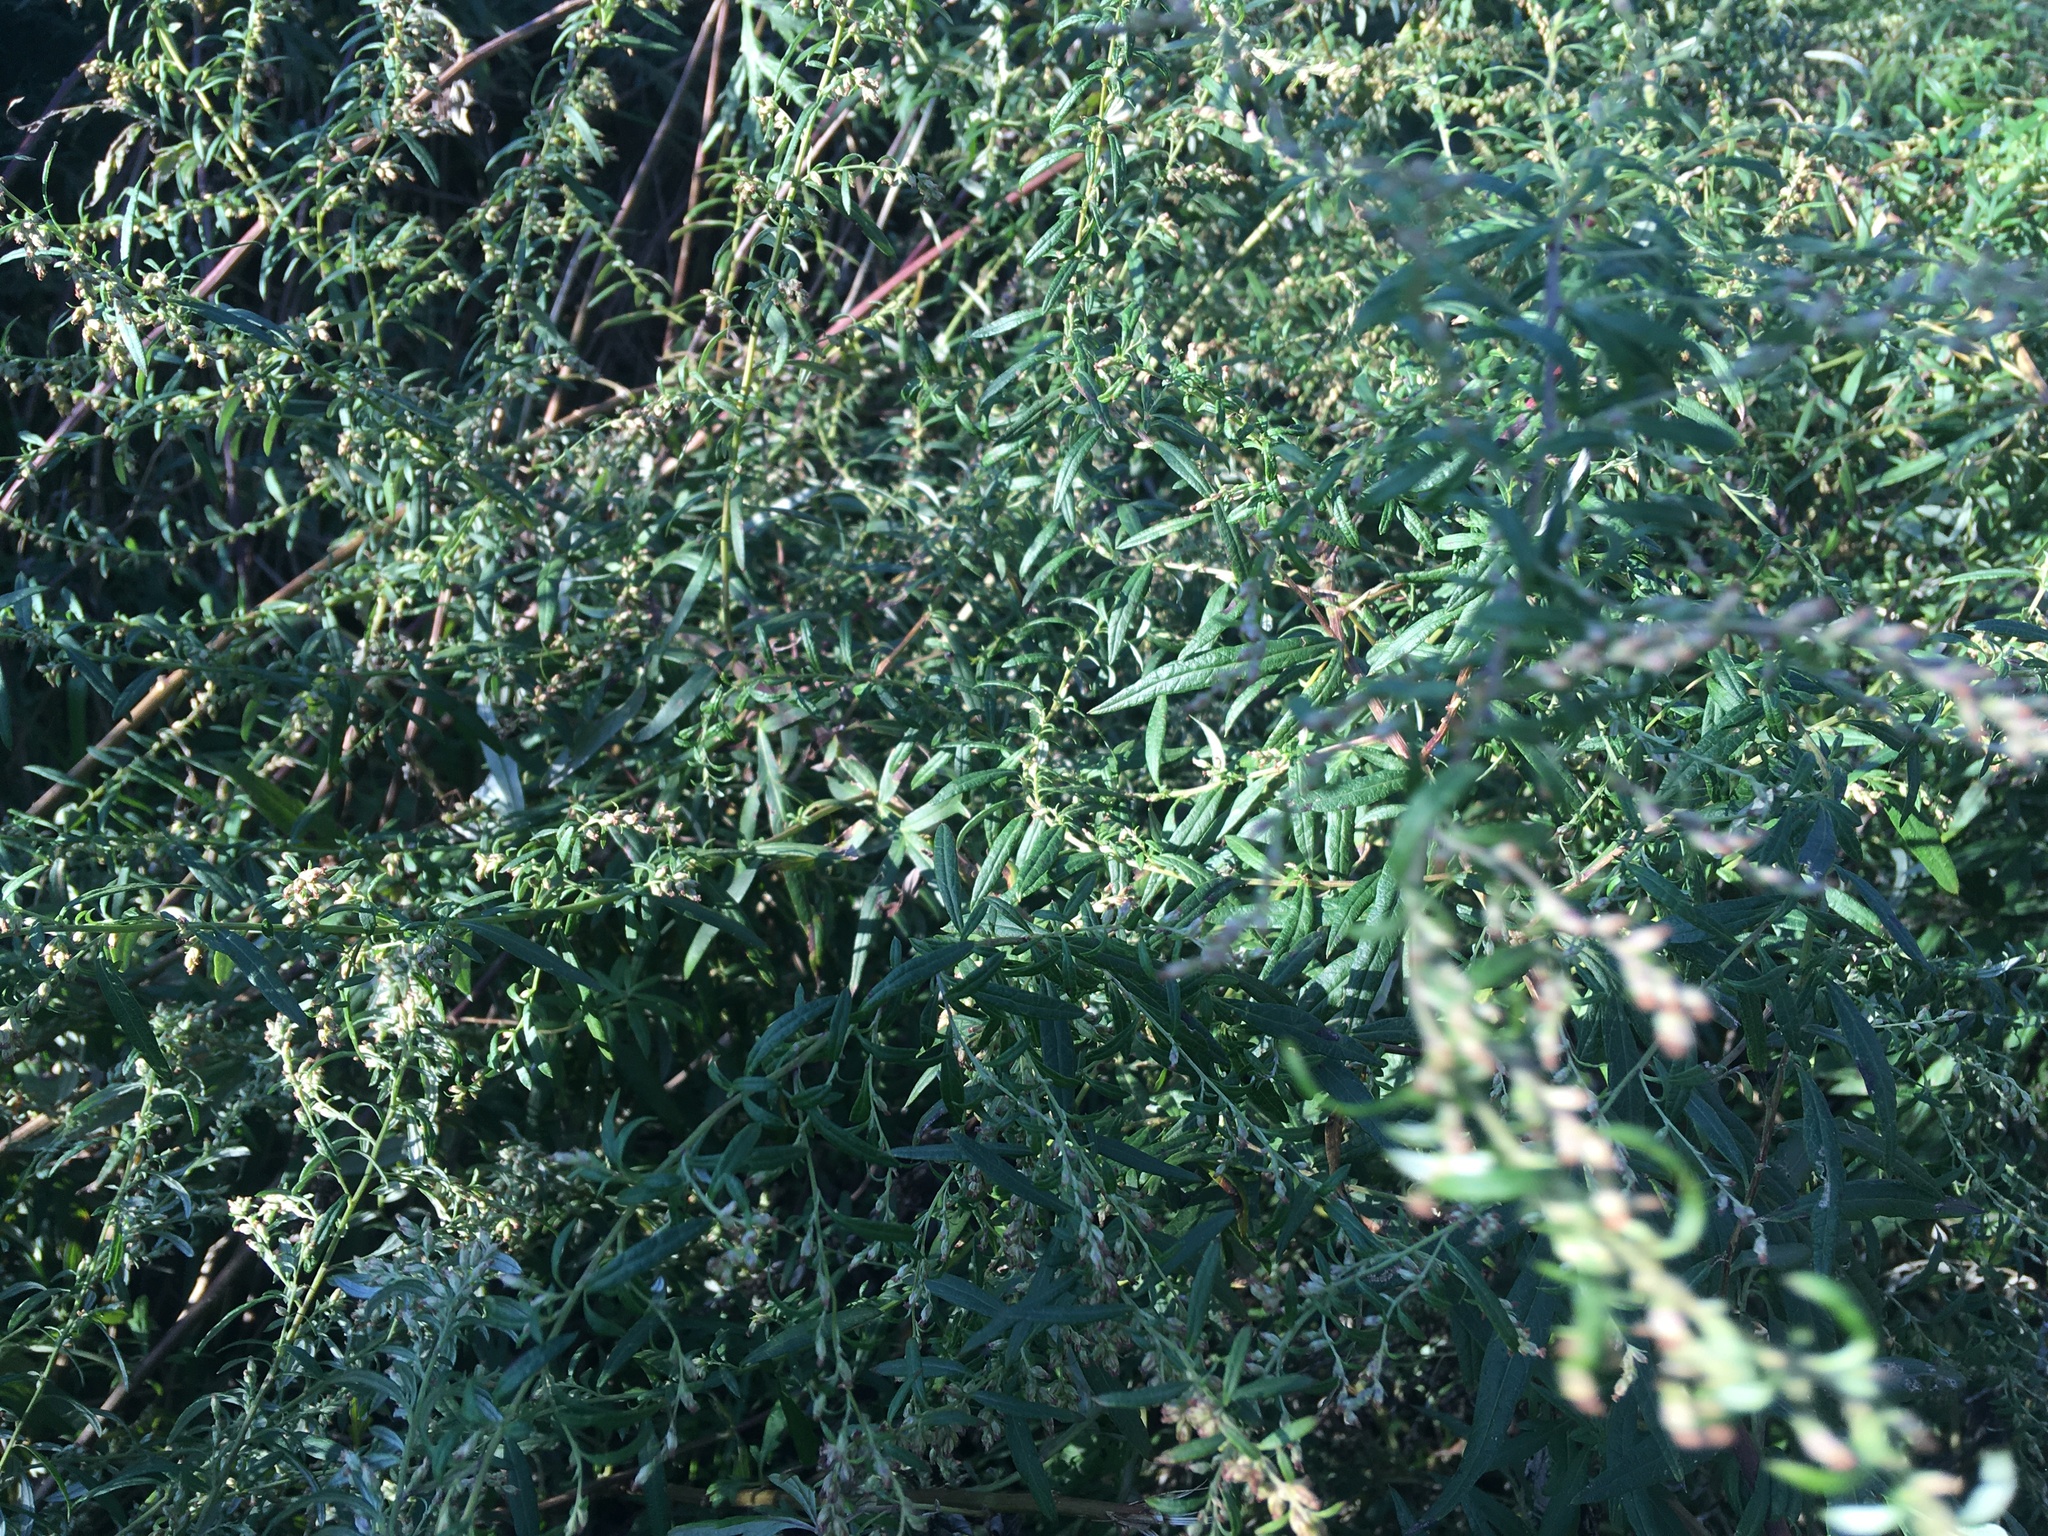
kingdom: Plantae
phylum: Tracheophyta
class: Magnoliopsida
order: Asterales
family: Asteraceae
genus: Artemisia
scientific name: Artemisia vulgaris
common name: Mugwort
